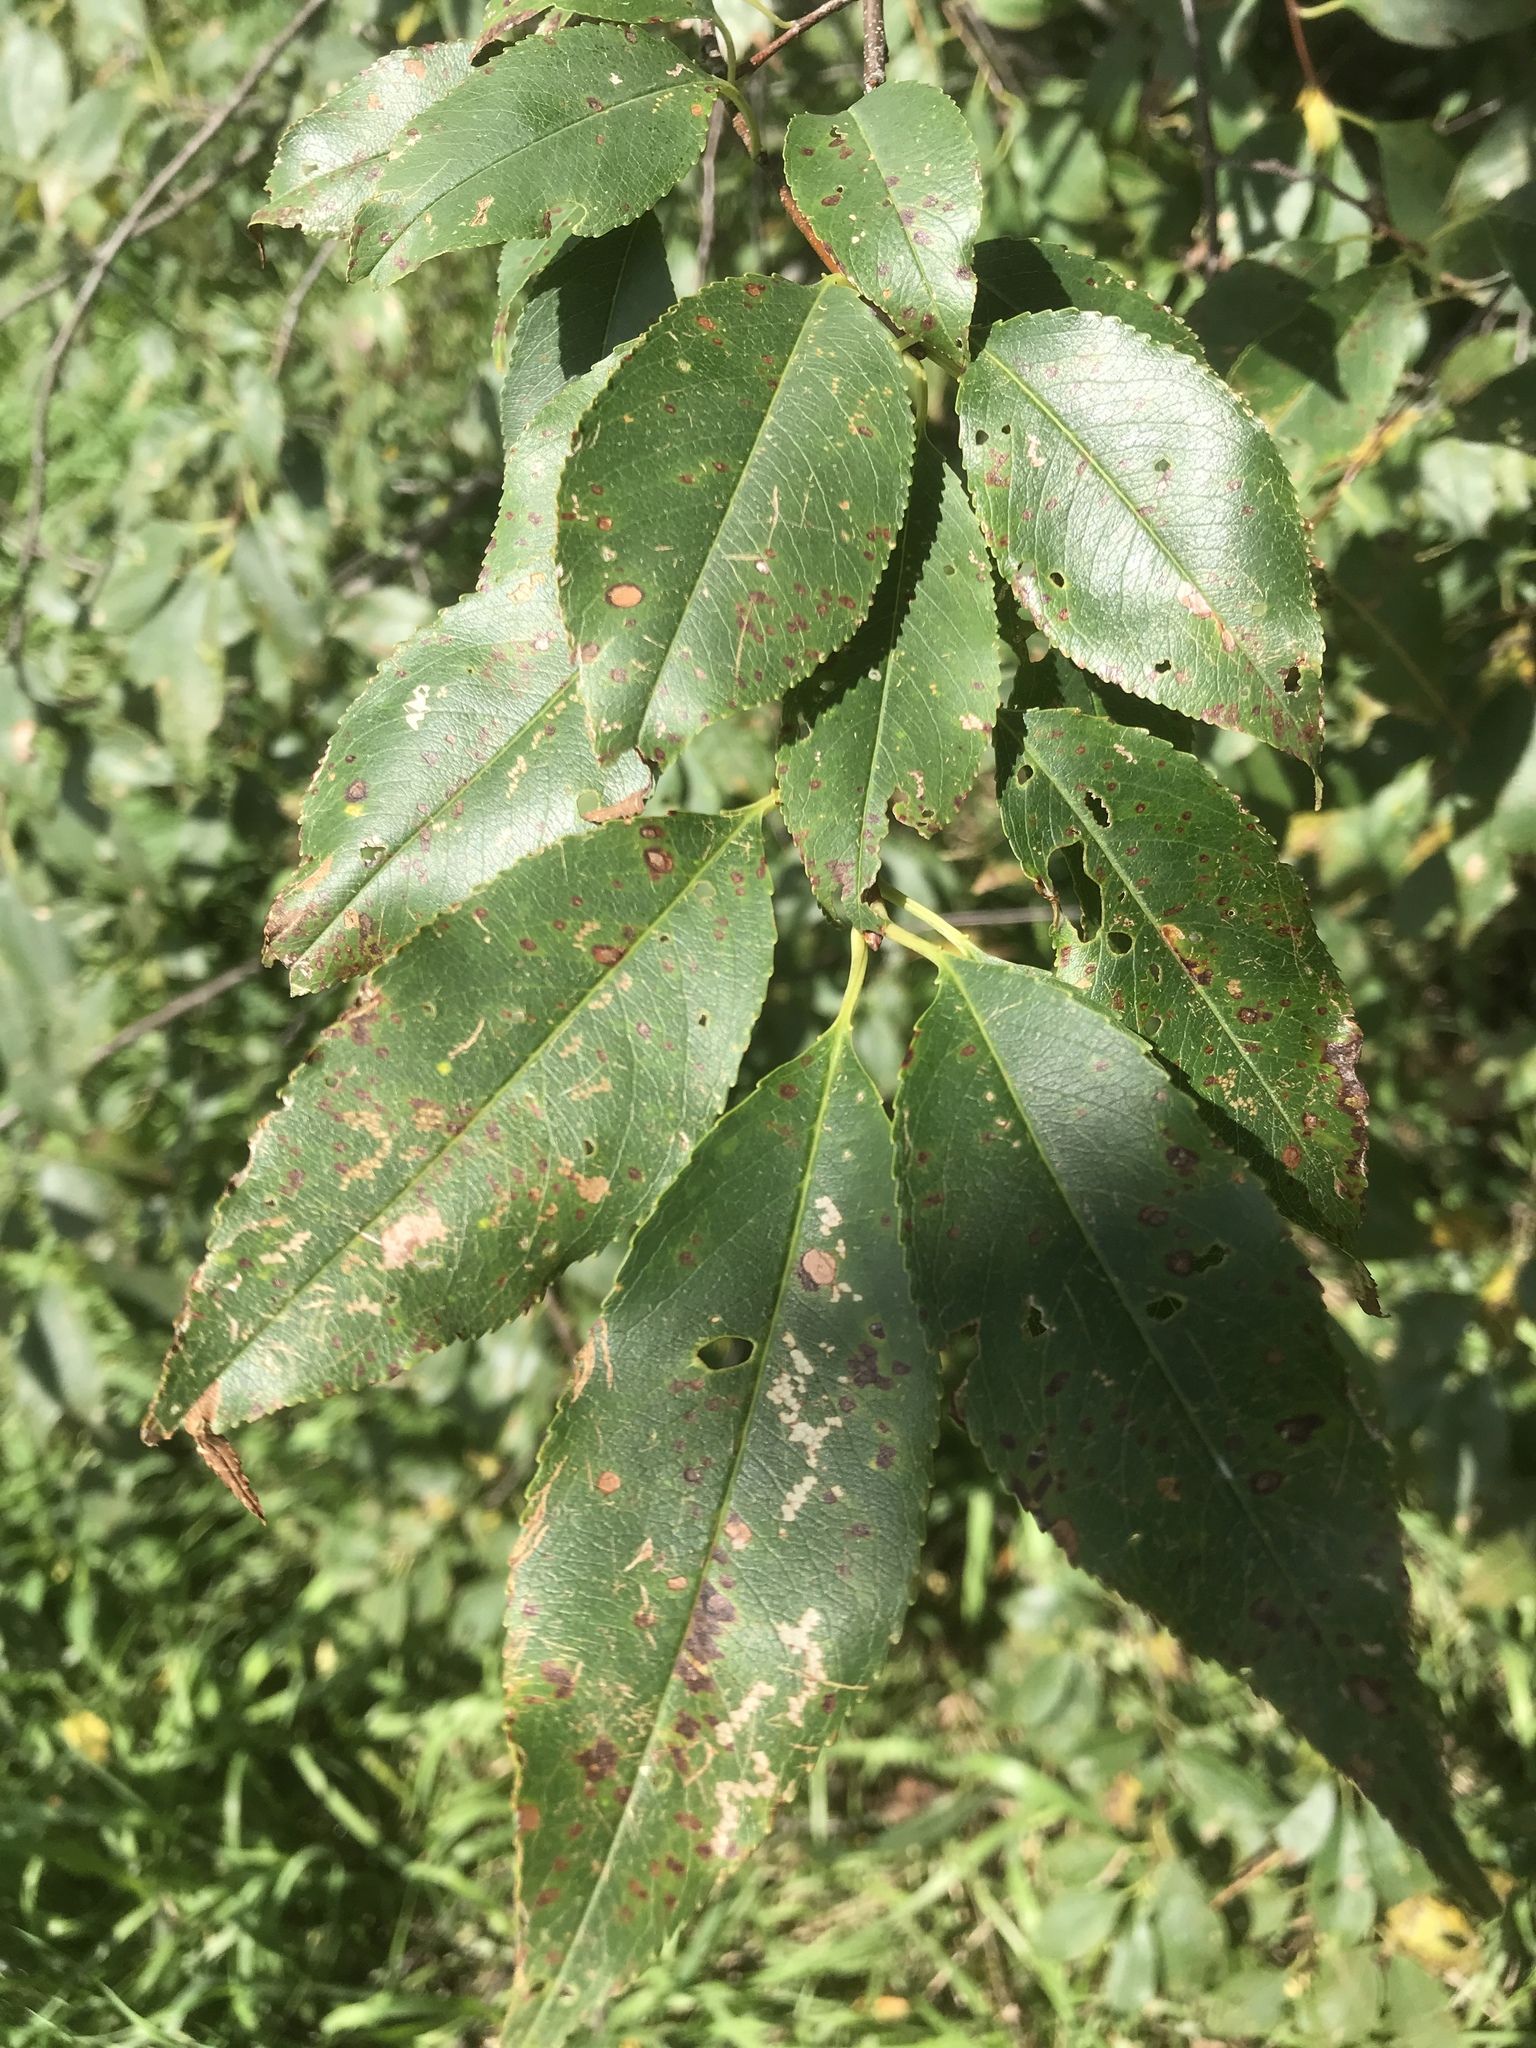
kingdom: Plantae
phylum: Tracheophyta
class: Magnoliopsida
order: Rosales
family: Rosaceae
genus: Prunus
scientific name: Prunus serotina
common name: Black cherry
